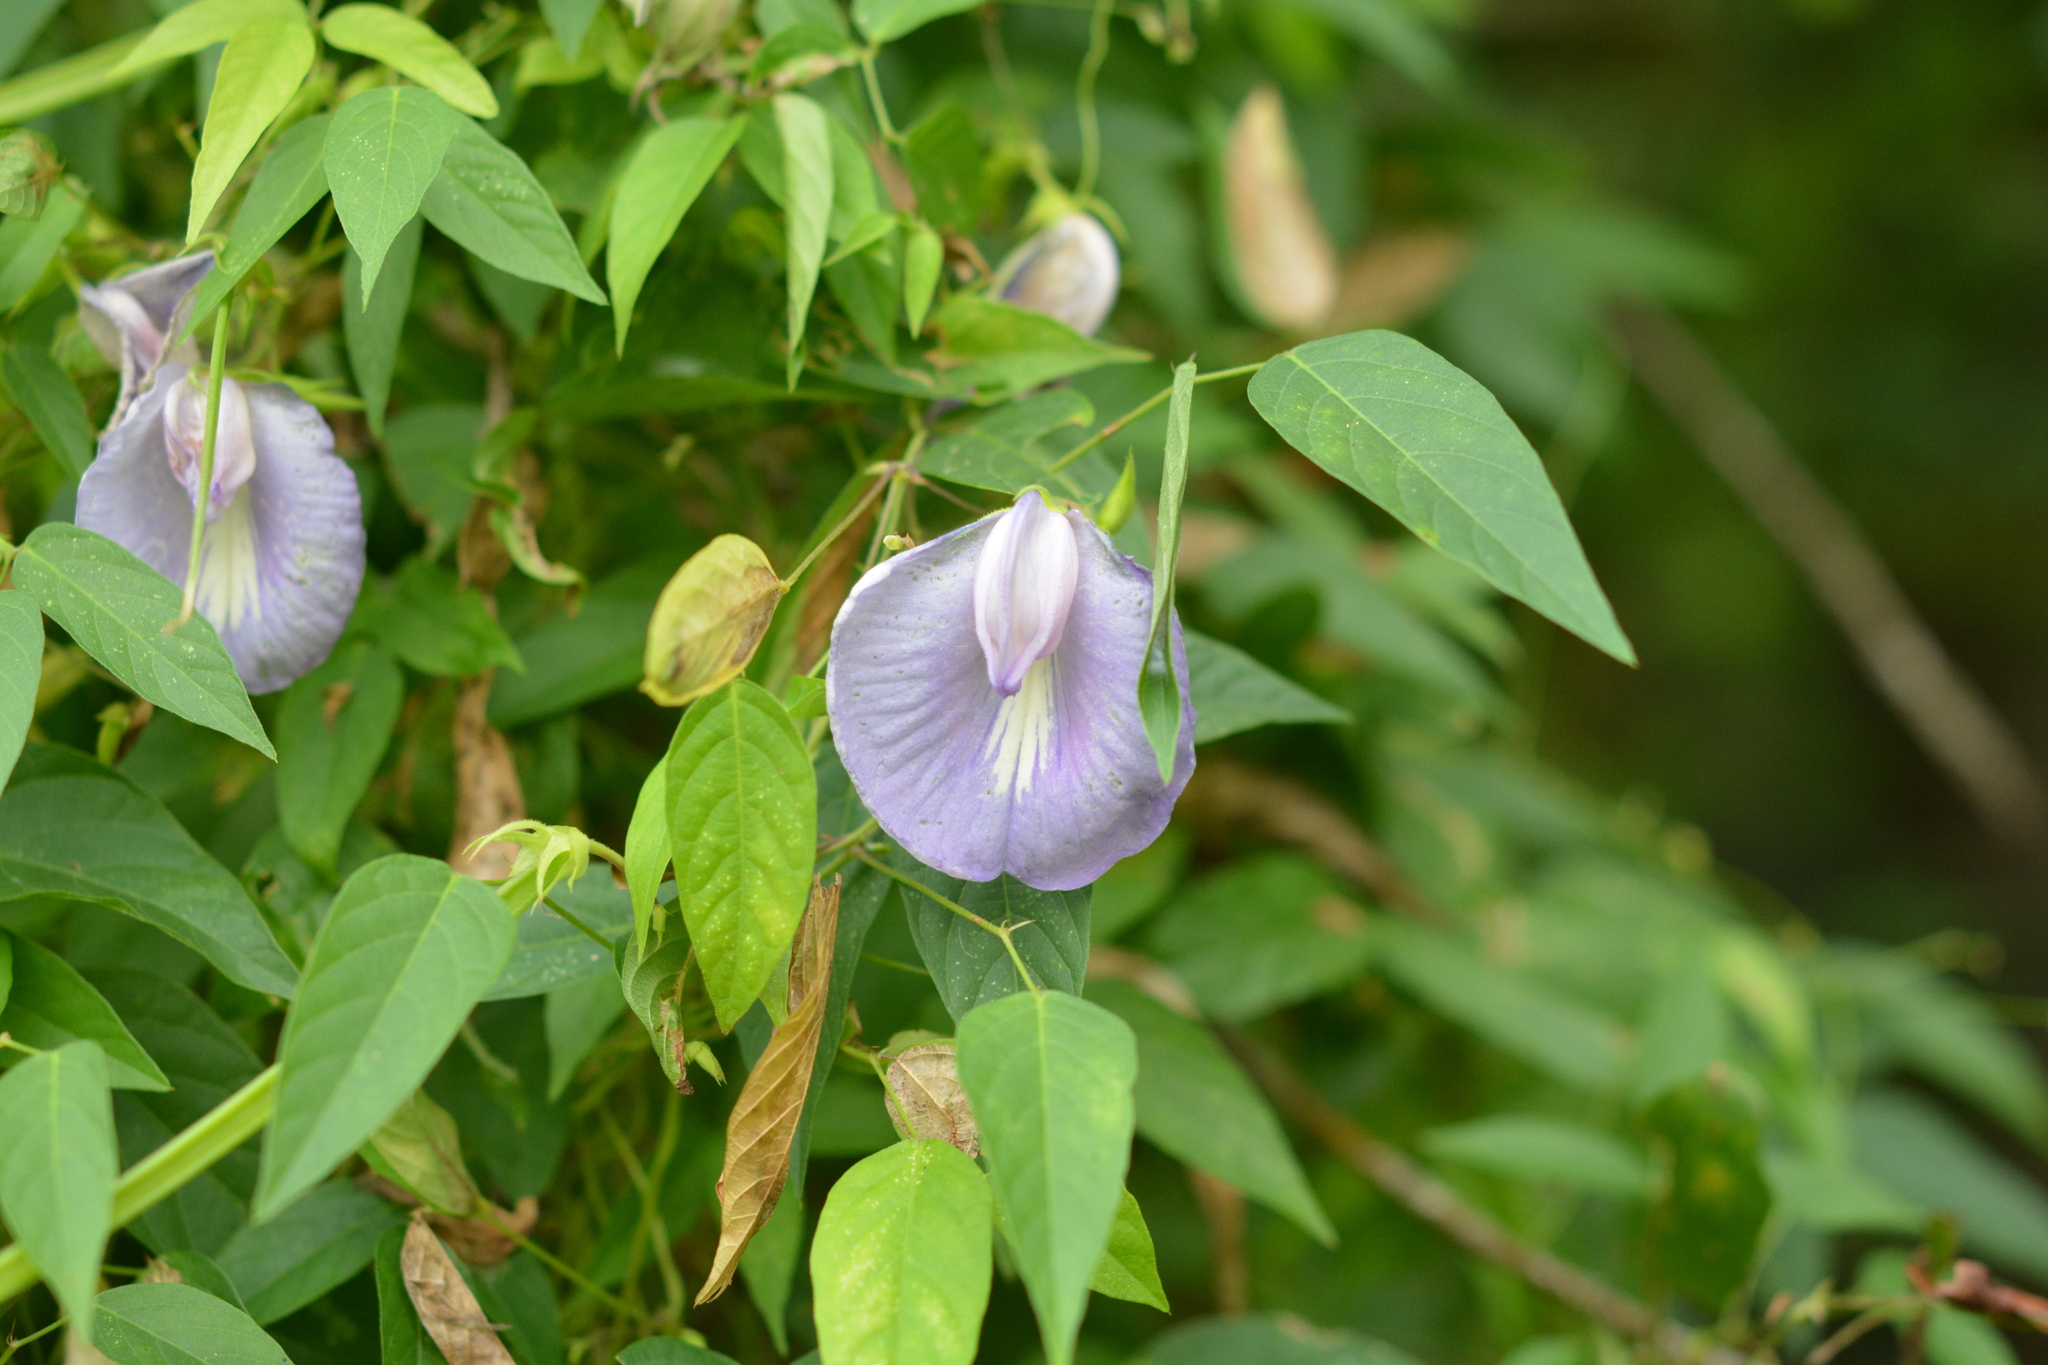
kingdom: Plantae
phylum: Tracheophyta
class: Magnoliopsida
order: Fabales
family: Fabaceae
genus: Centrosema
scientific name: Centrosema virginianum
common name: Butterfly-pea
